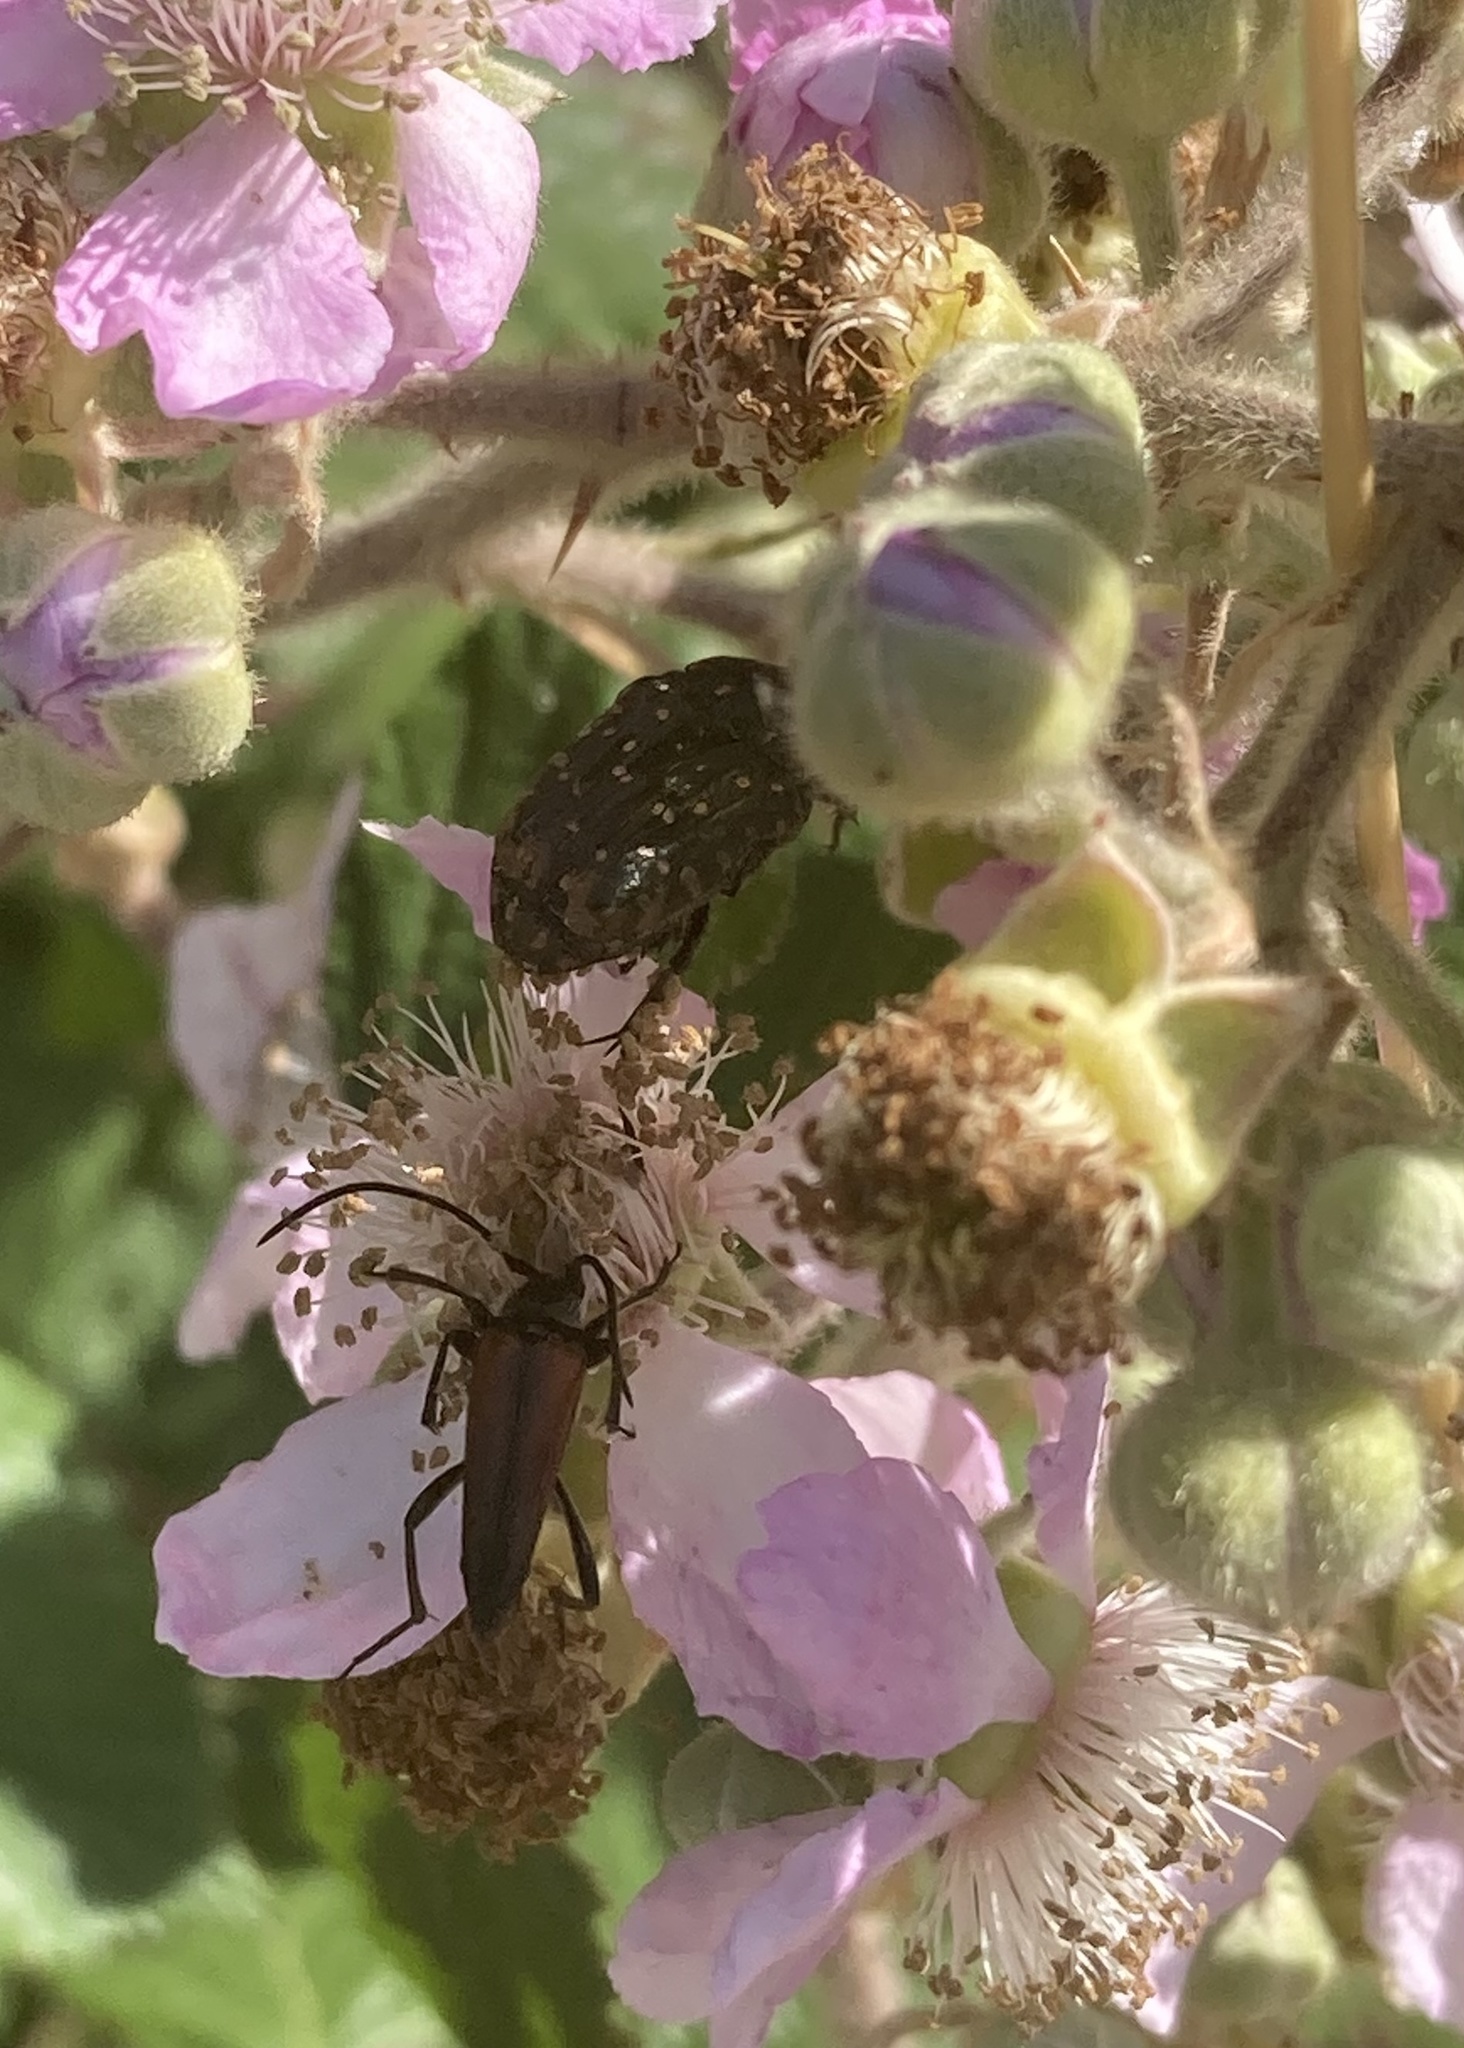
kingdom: Animalia
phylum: Arthropoda
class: Insecta
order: Coleoptera
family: Scarabaeidae
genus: Oxythyrea
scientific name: Oxythyrea funesta
